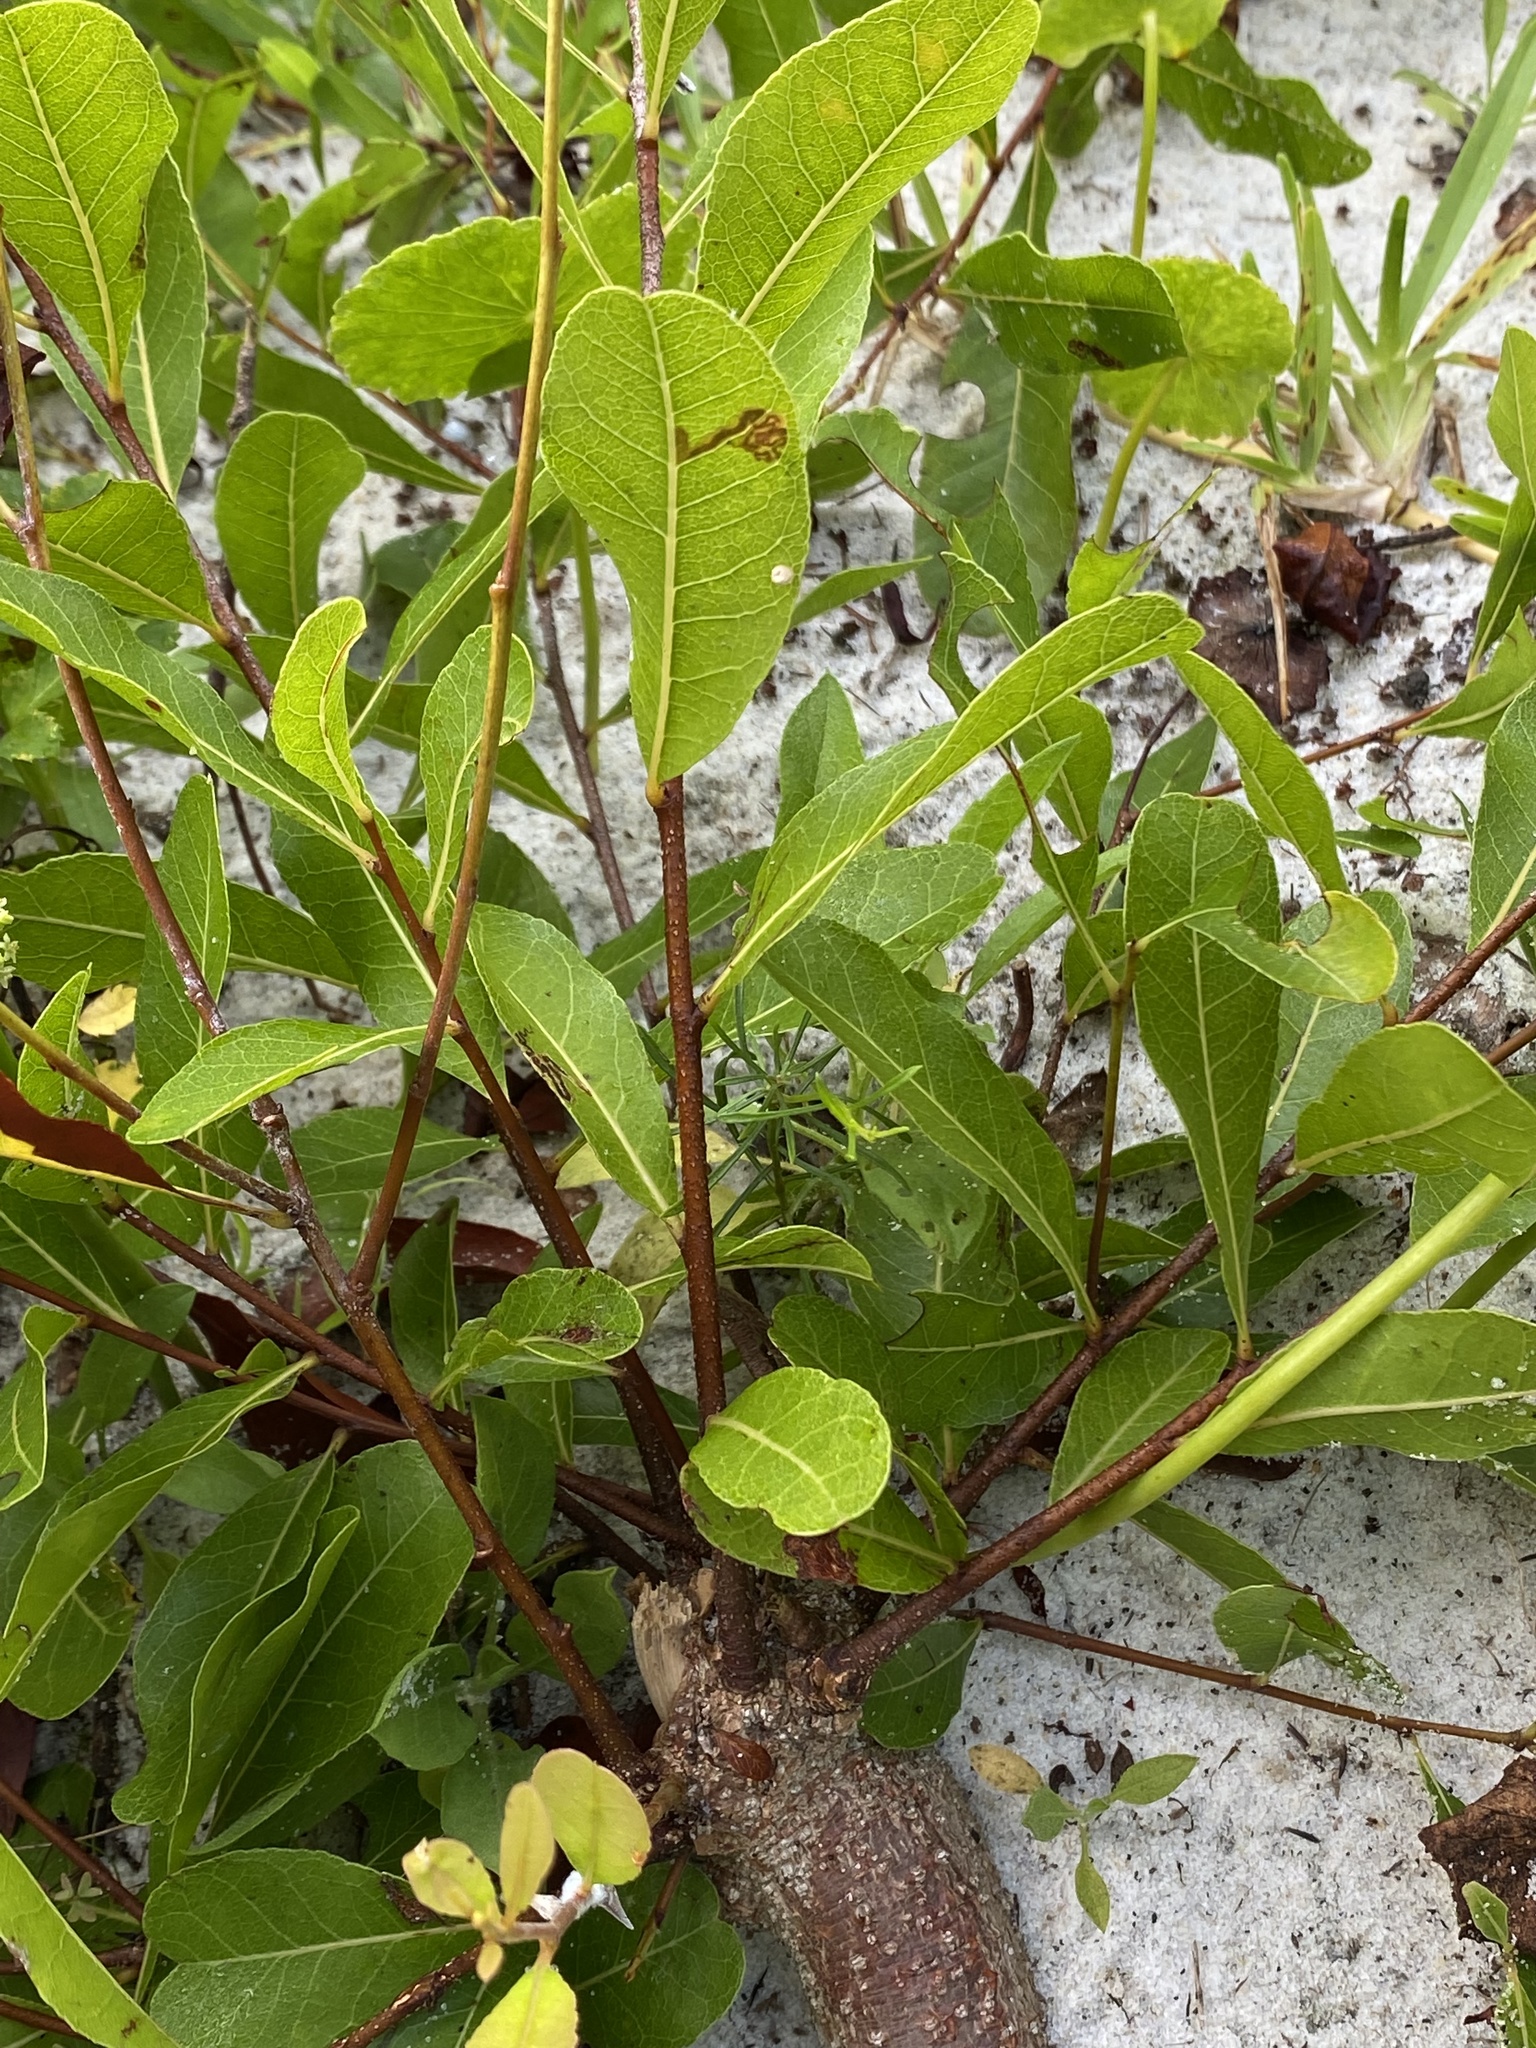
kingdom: Plantae
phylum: Tracheophyta
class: Magnoliopsida
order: Malpighiales
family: Chrysobalanaceae
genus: Geobalanus
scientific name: Geobalanus oblongifolius
